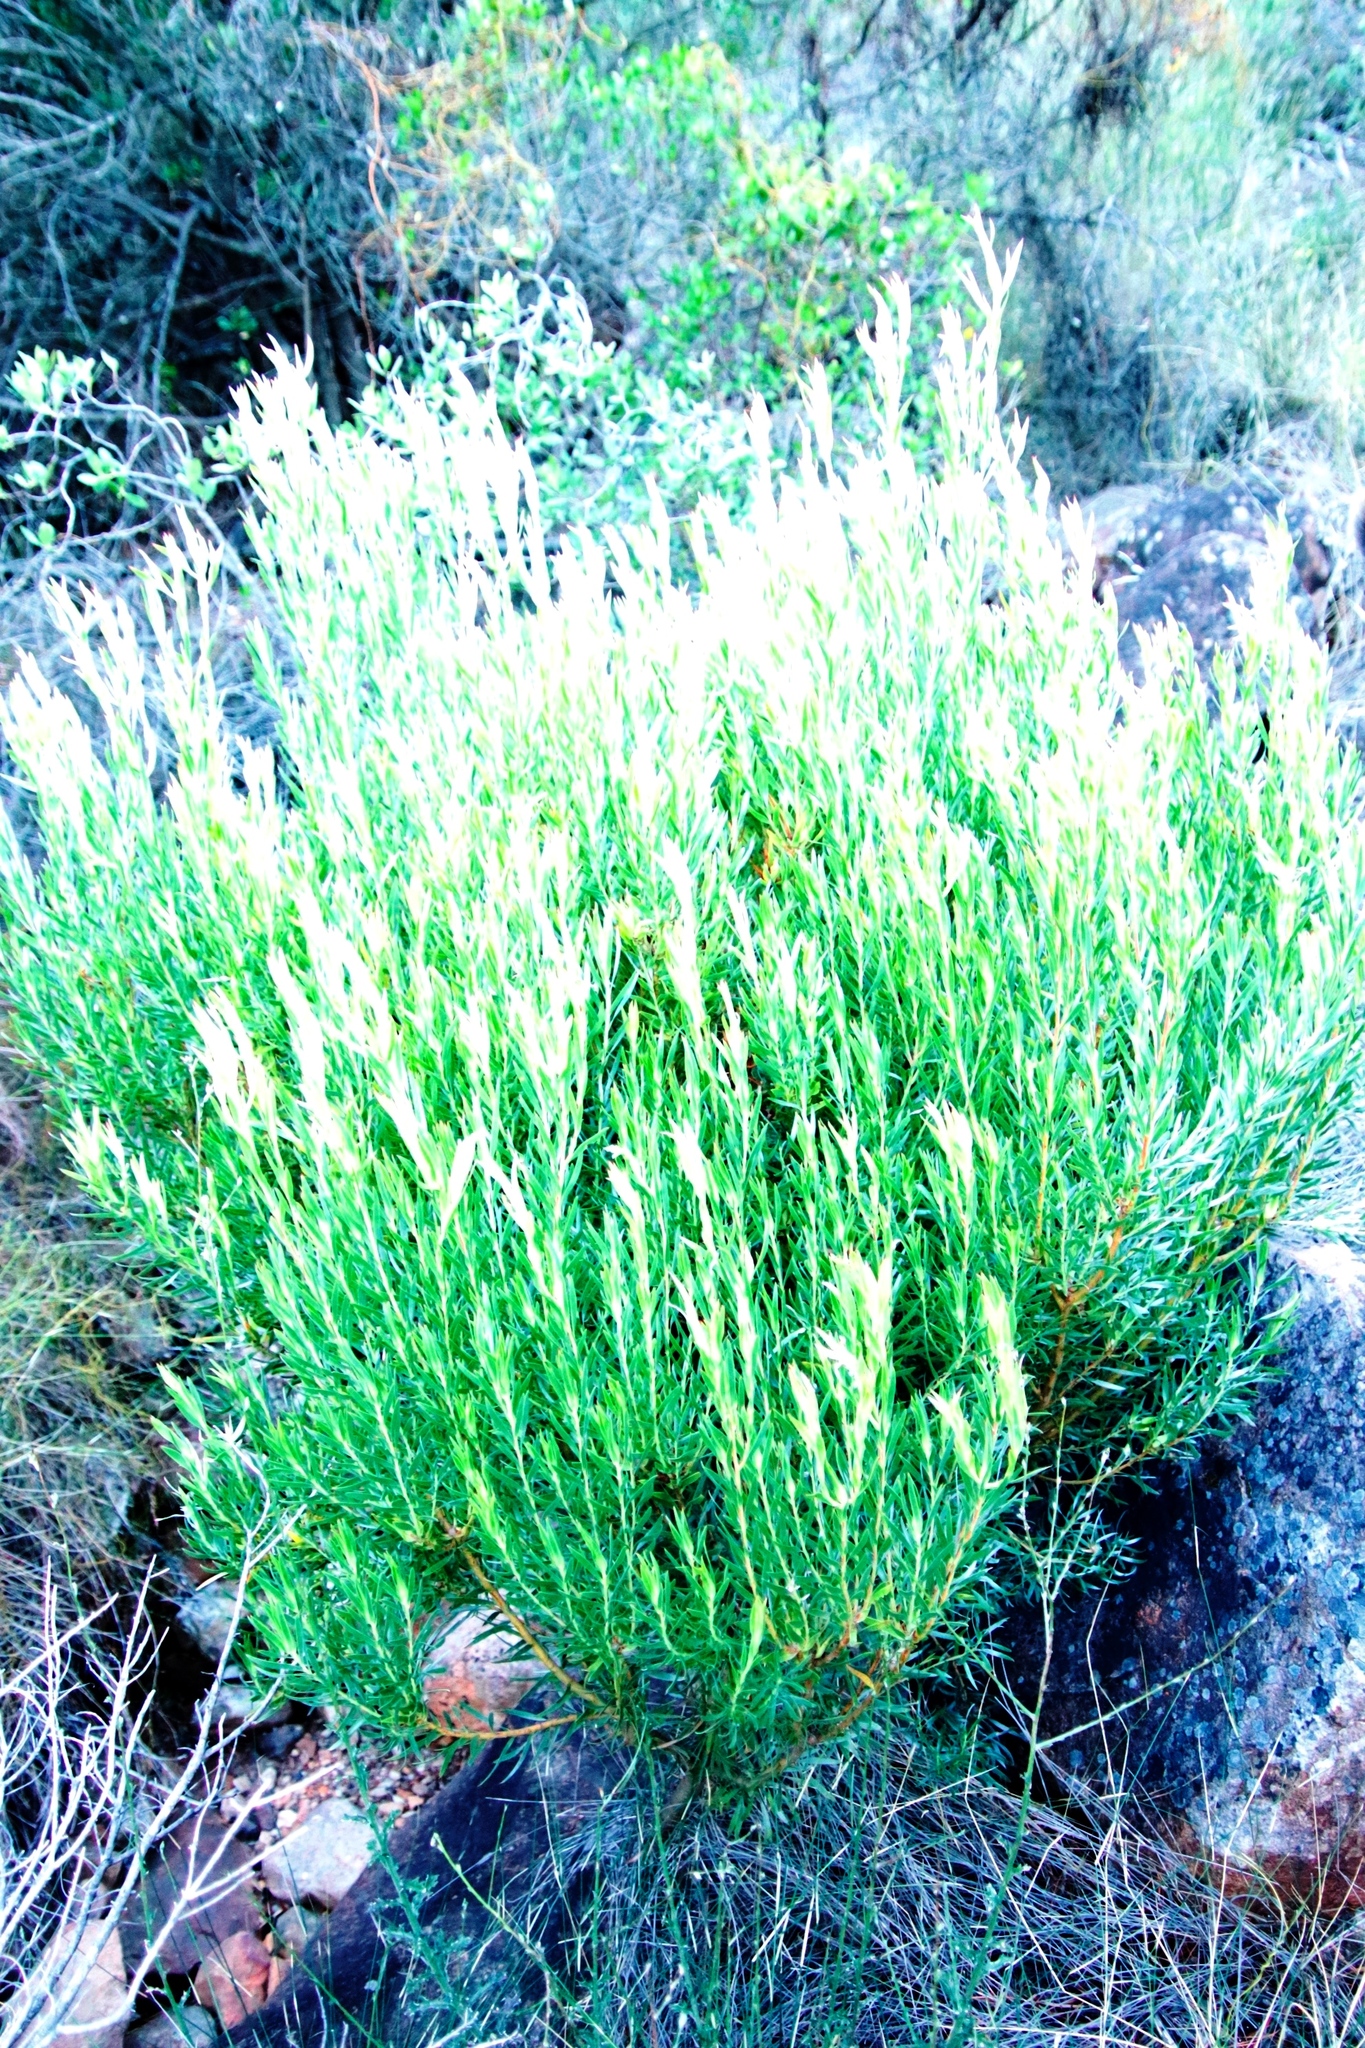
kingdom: Plantae
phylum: Tracheophyta
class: Magnoliopsida
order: Proteales
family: Proteaceae
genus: Leucadendron
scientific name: Leucadendron xanthoconus
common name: Sickle-leaf conebush
